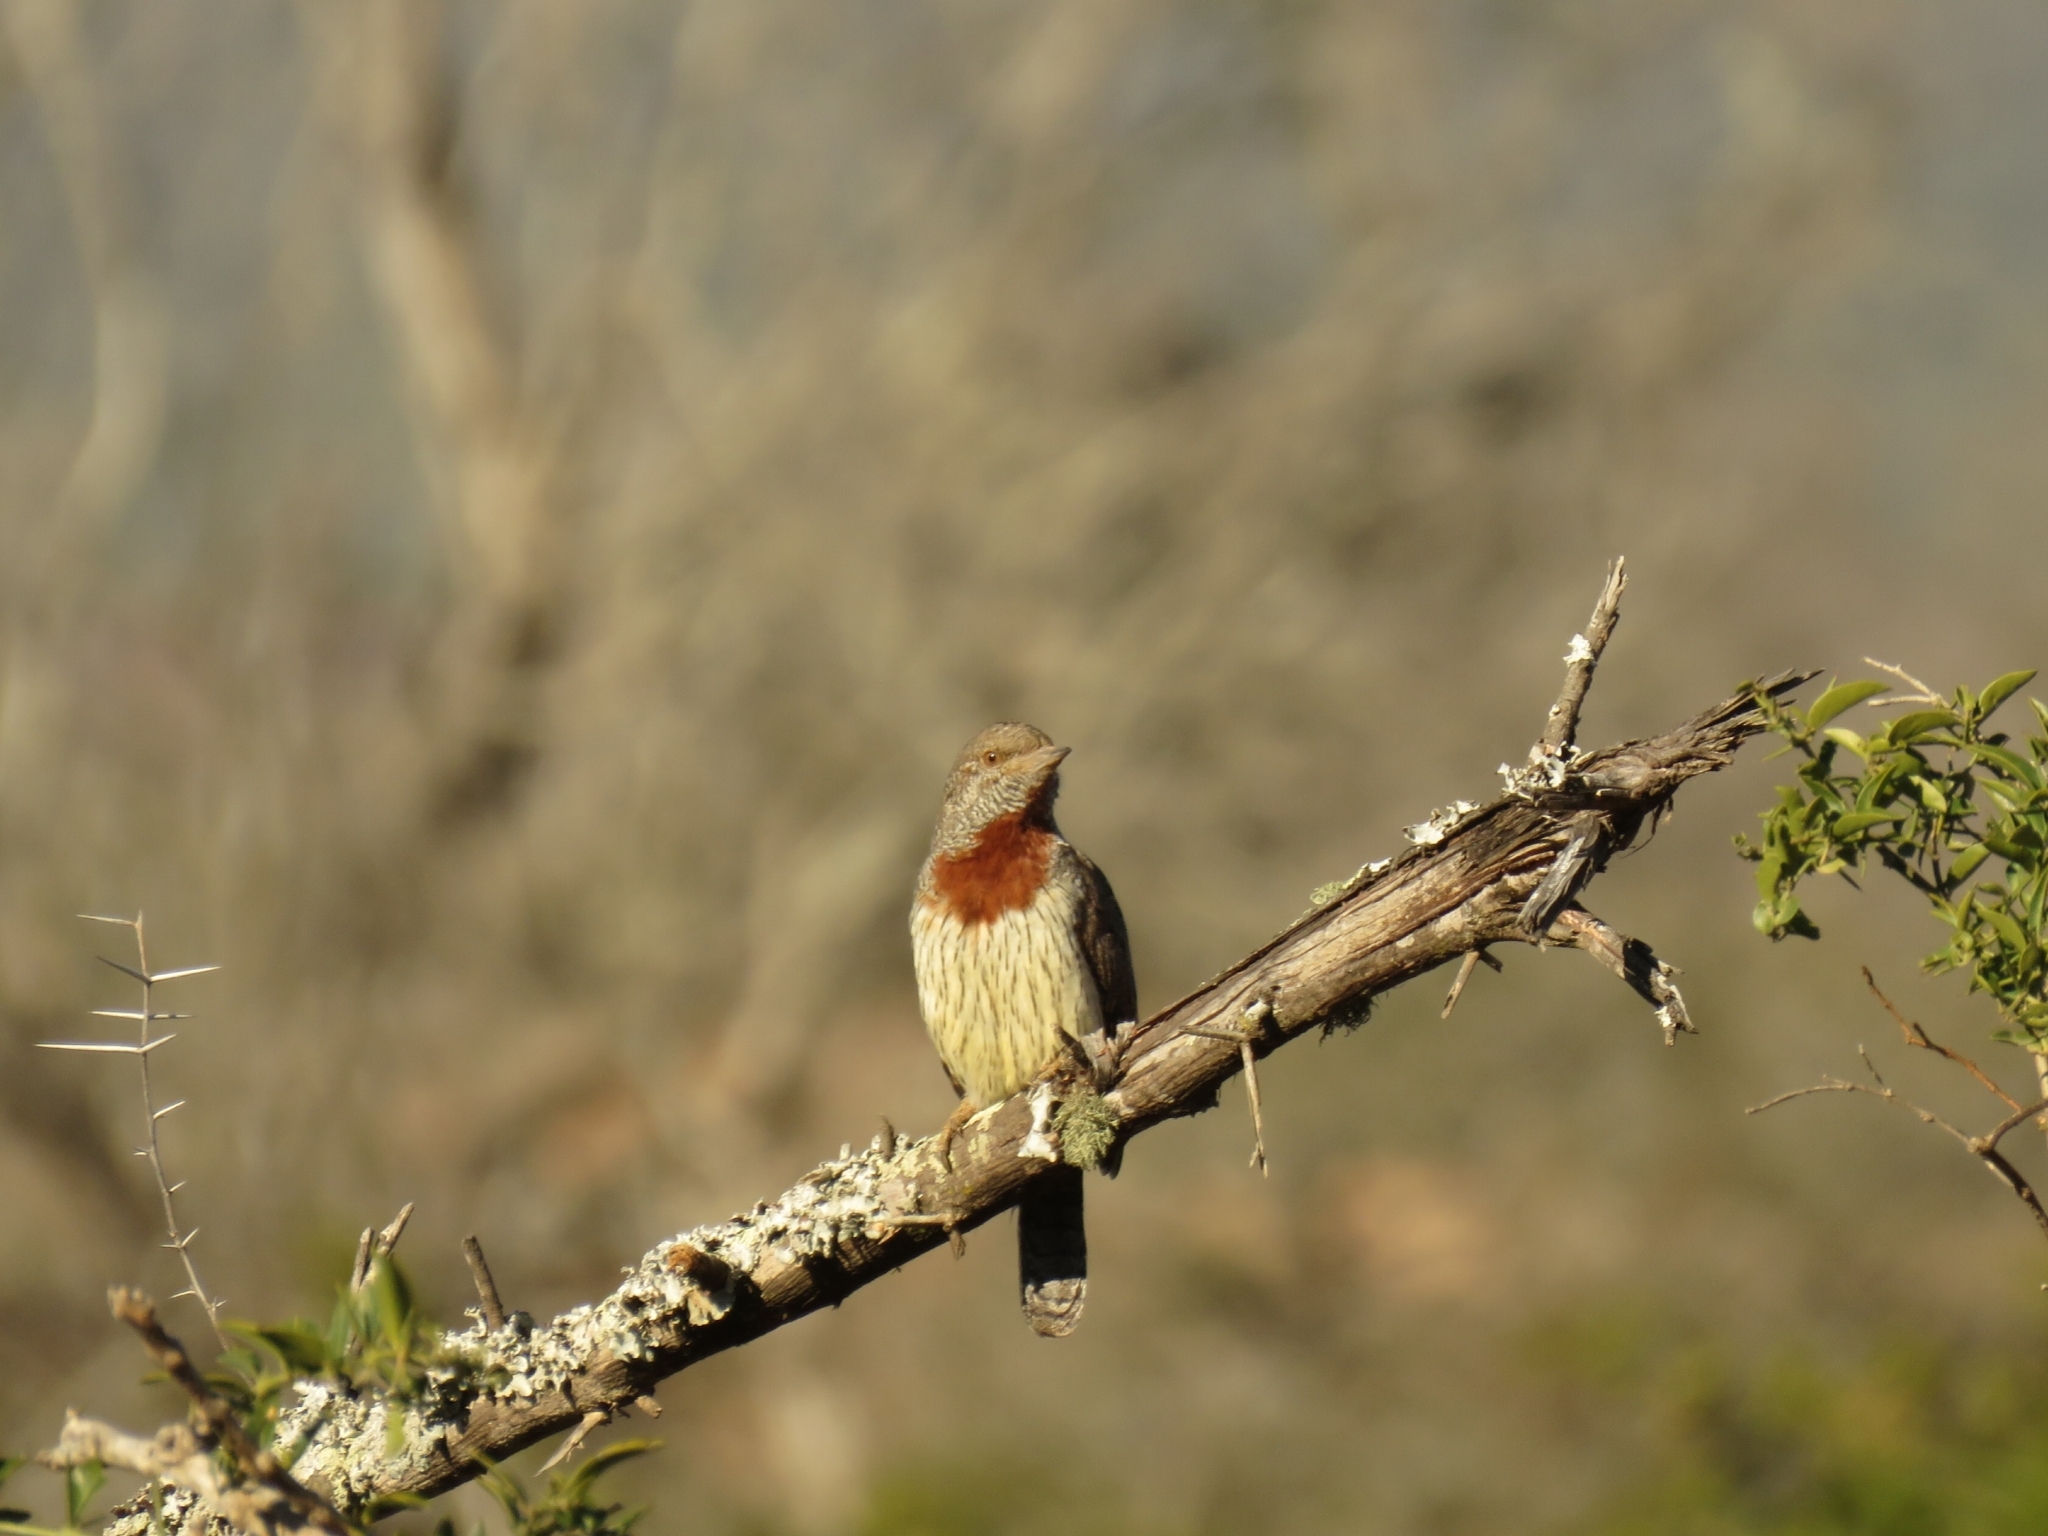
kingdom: Animalia
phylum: Chordata
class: Aves
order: Piciformes
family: Picidae
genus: Jynx
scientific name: Jynx ruficollis
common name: Red-throated wryneck
